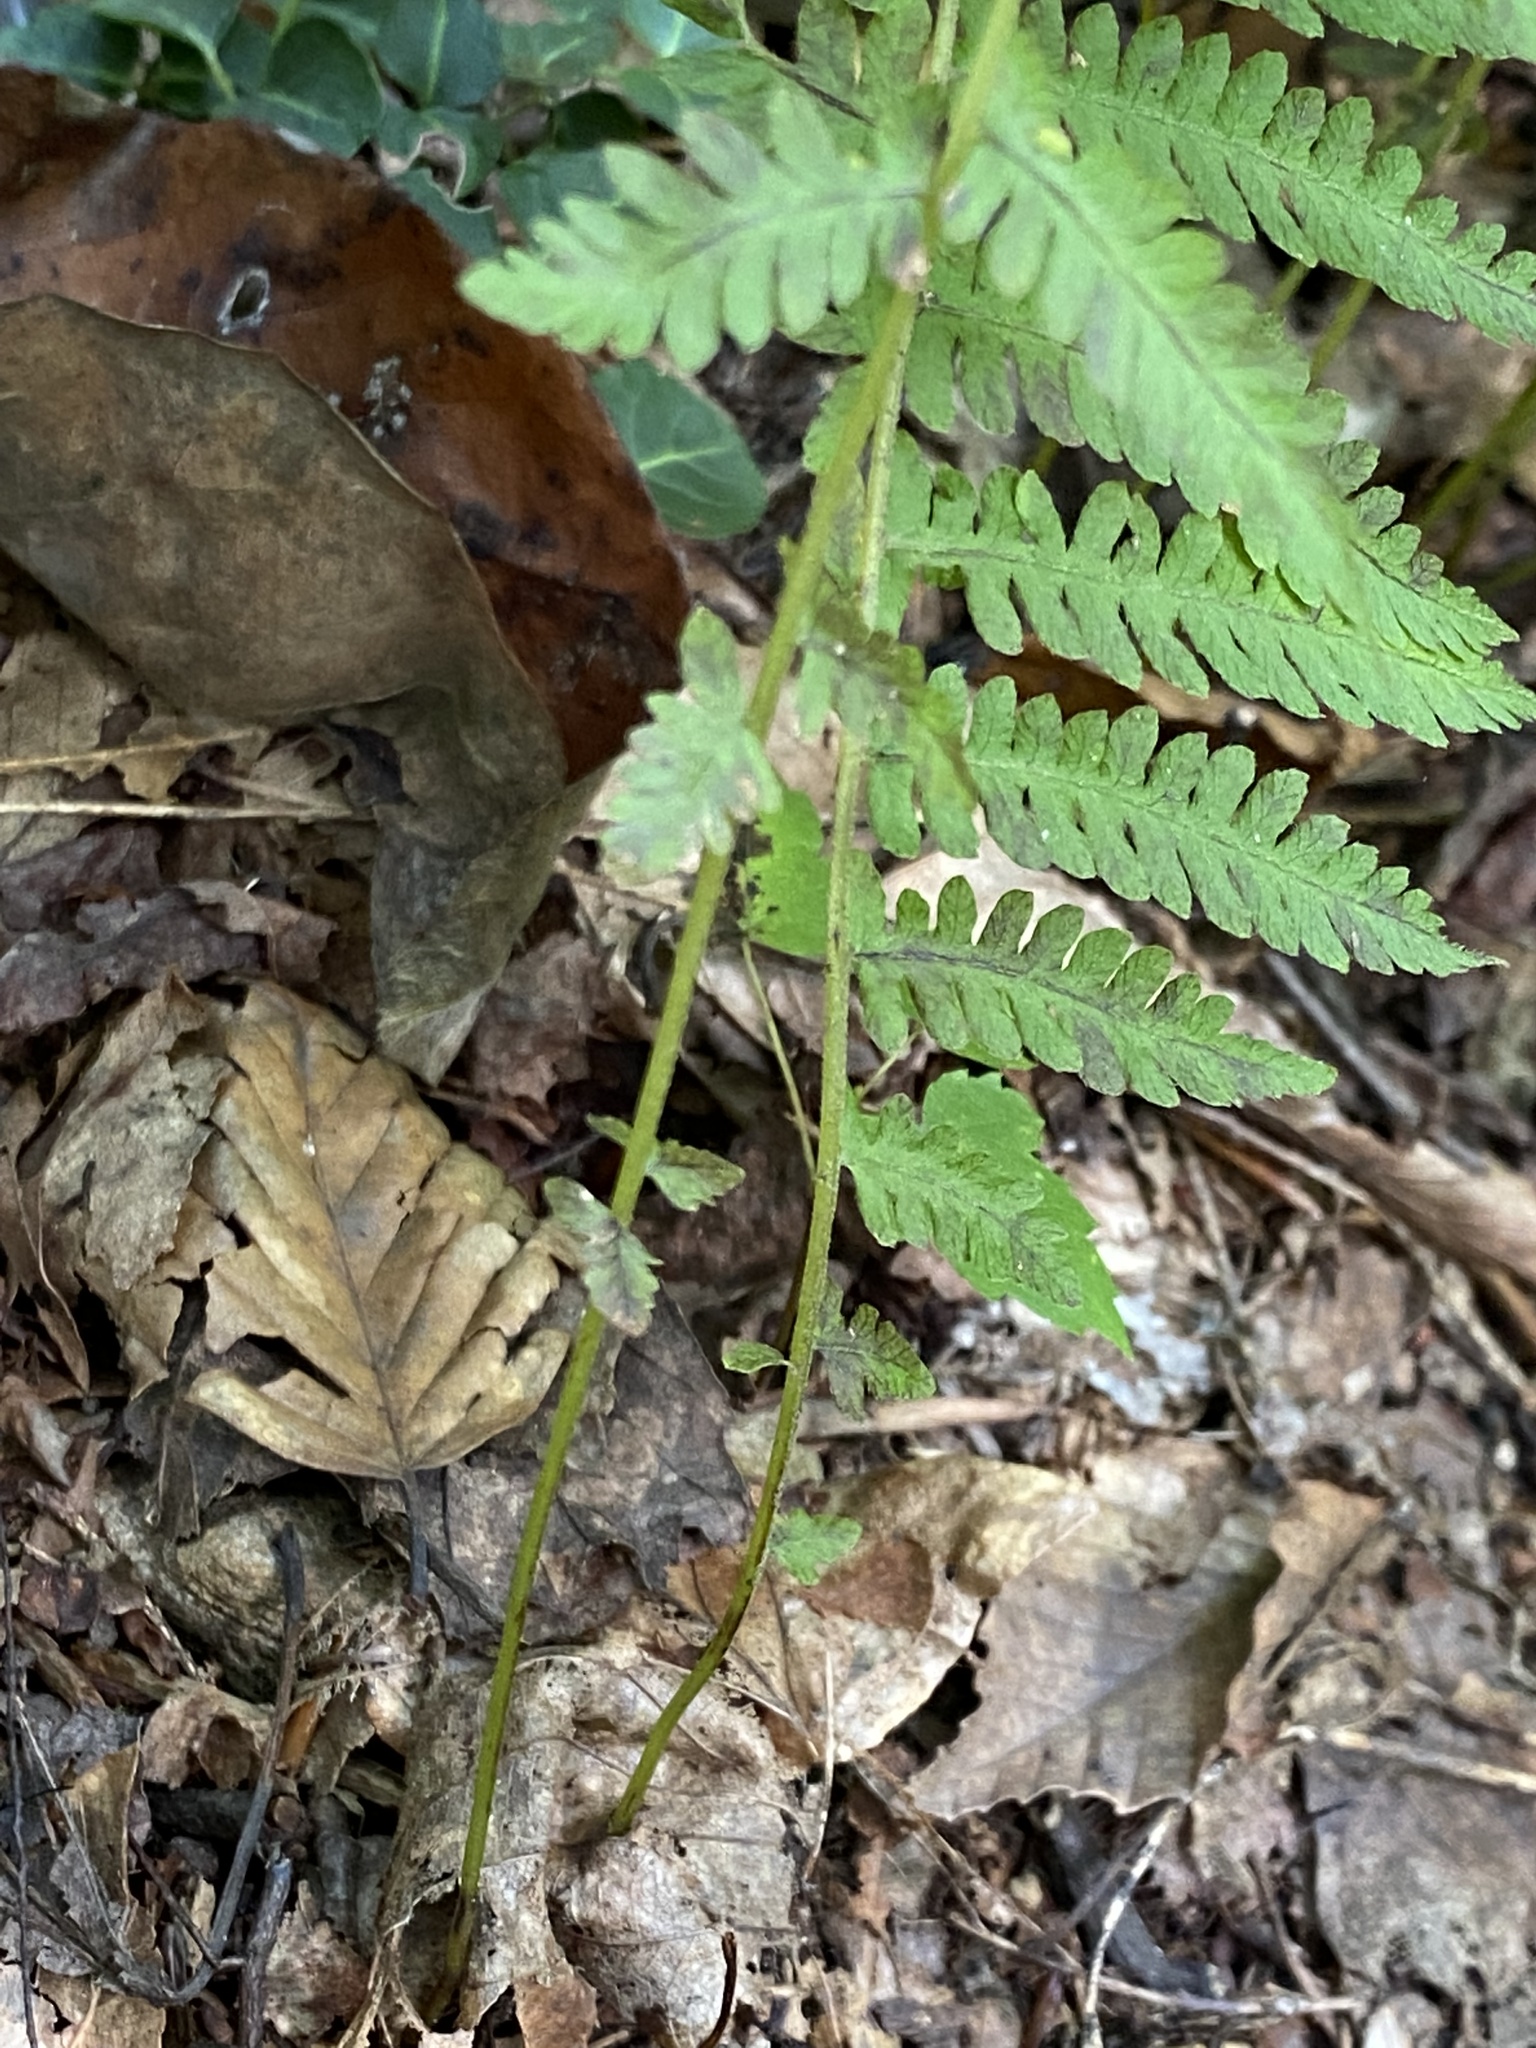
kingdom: Plantae
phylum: Tracheophyta
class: Polypodiopsida
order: Polypodiales
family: Thelypteridaceae
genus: Amauropelta
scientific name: Amauropelta noveboracensis
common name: New york fern
